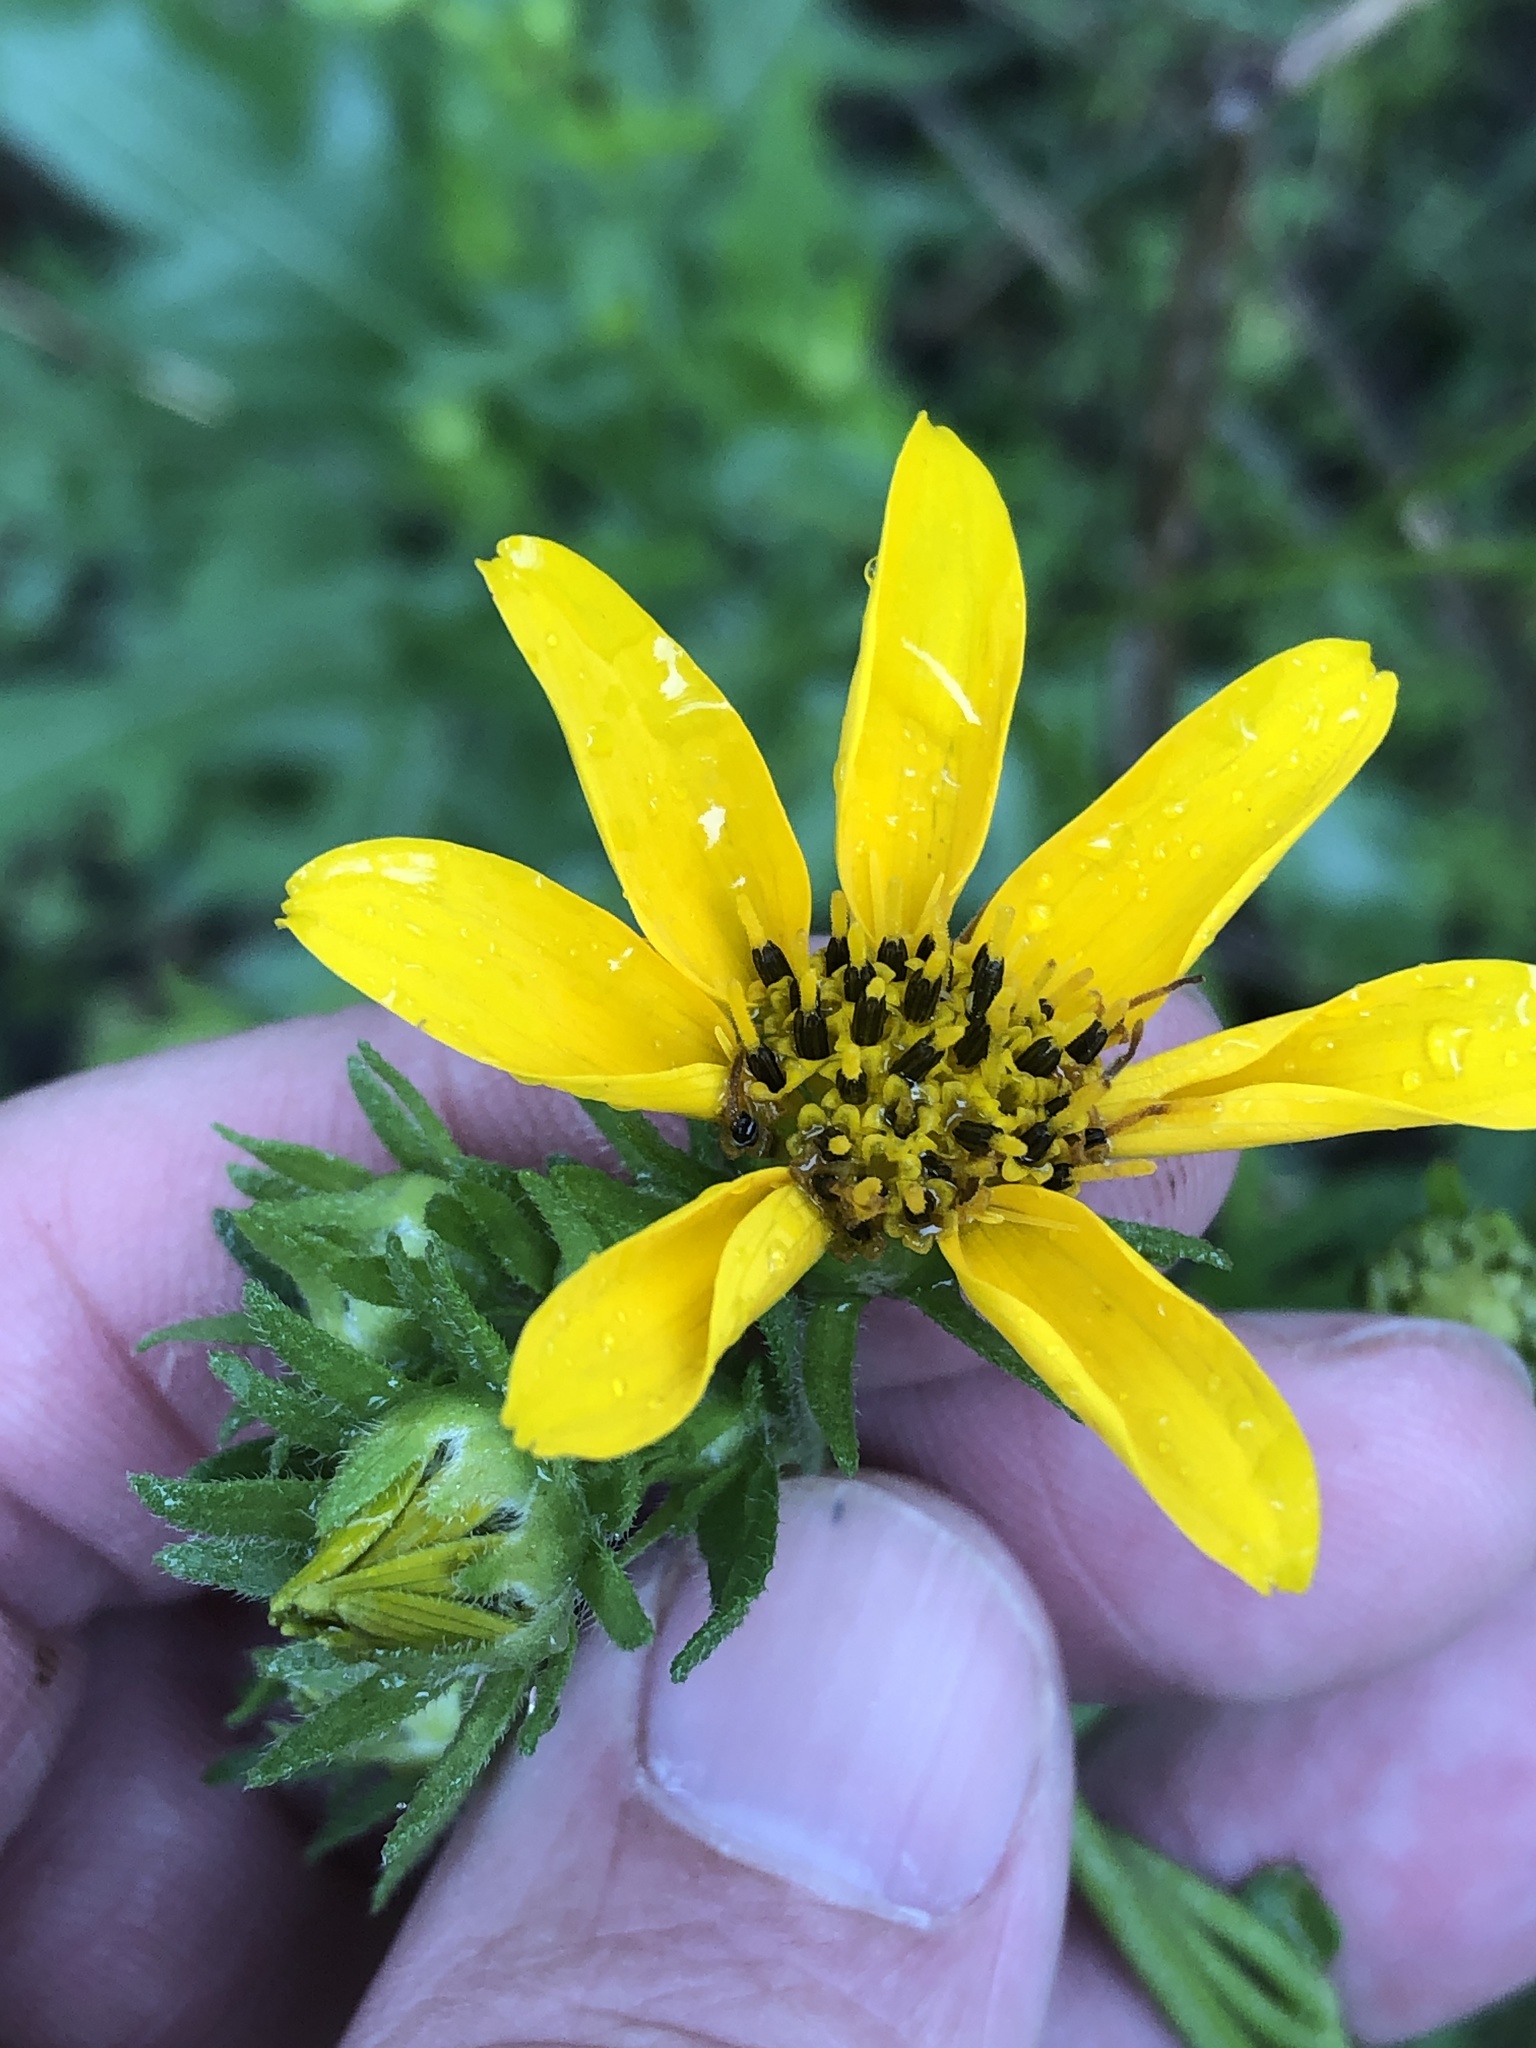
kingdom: Plantae
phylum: Tracheophyta
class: Magnoliopsida
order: Asterales
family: Asteraceae
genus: Engelmannia
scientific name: Engelmannia peristenia
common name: Engelmann's daisy
